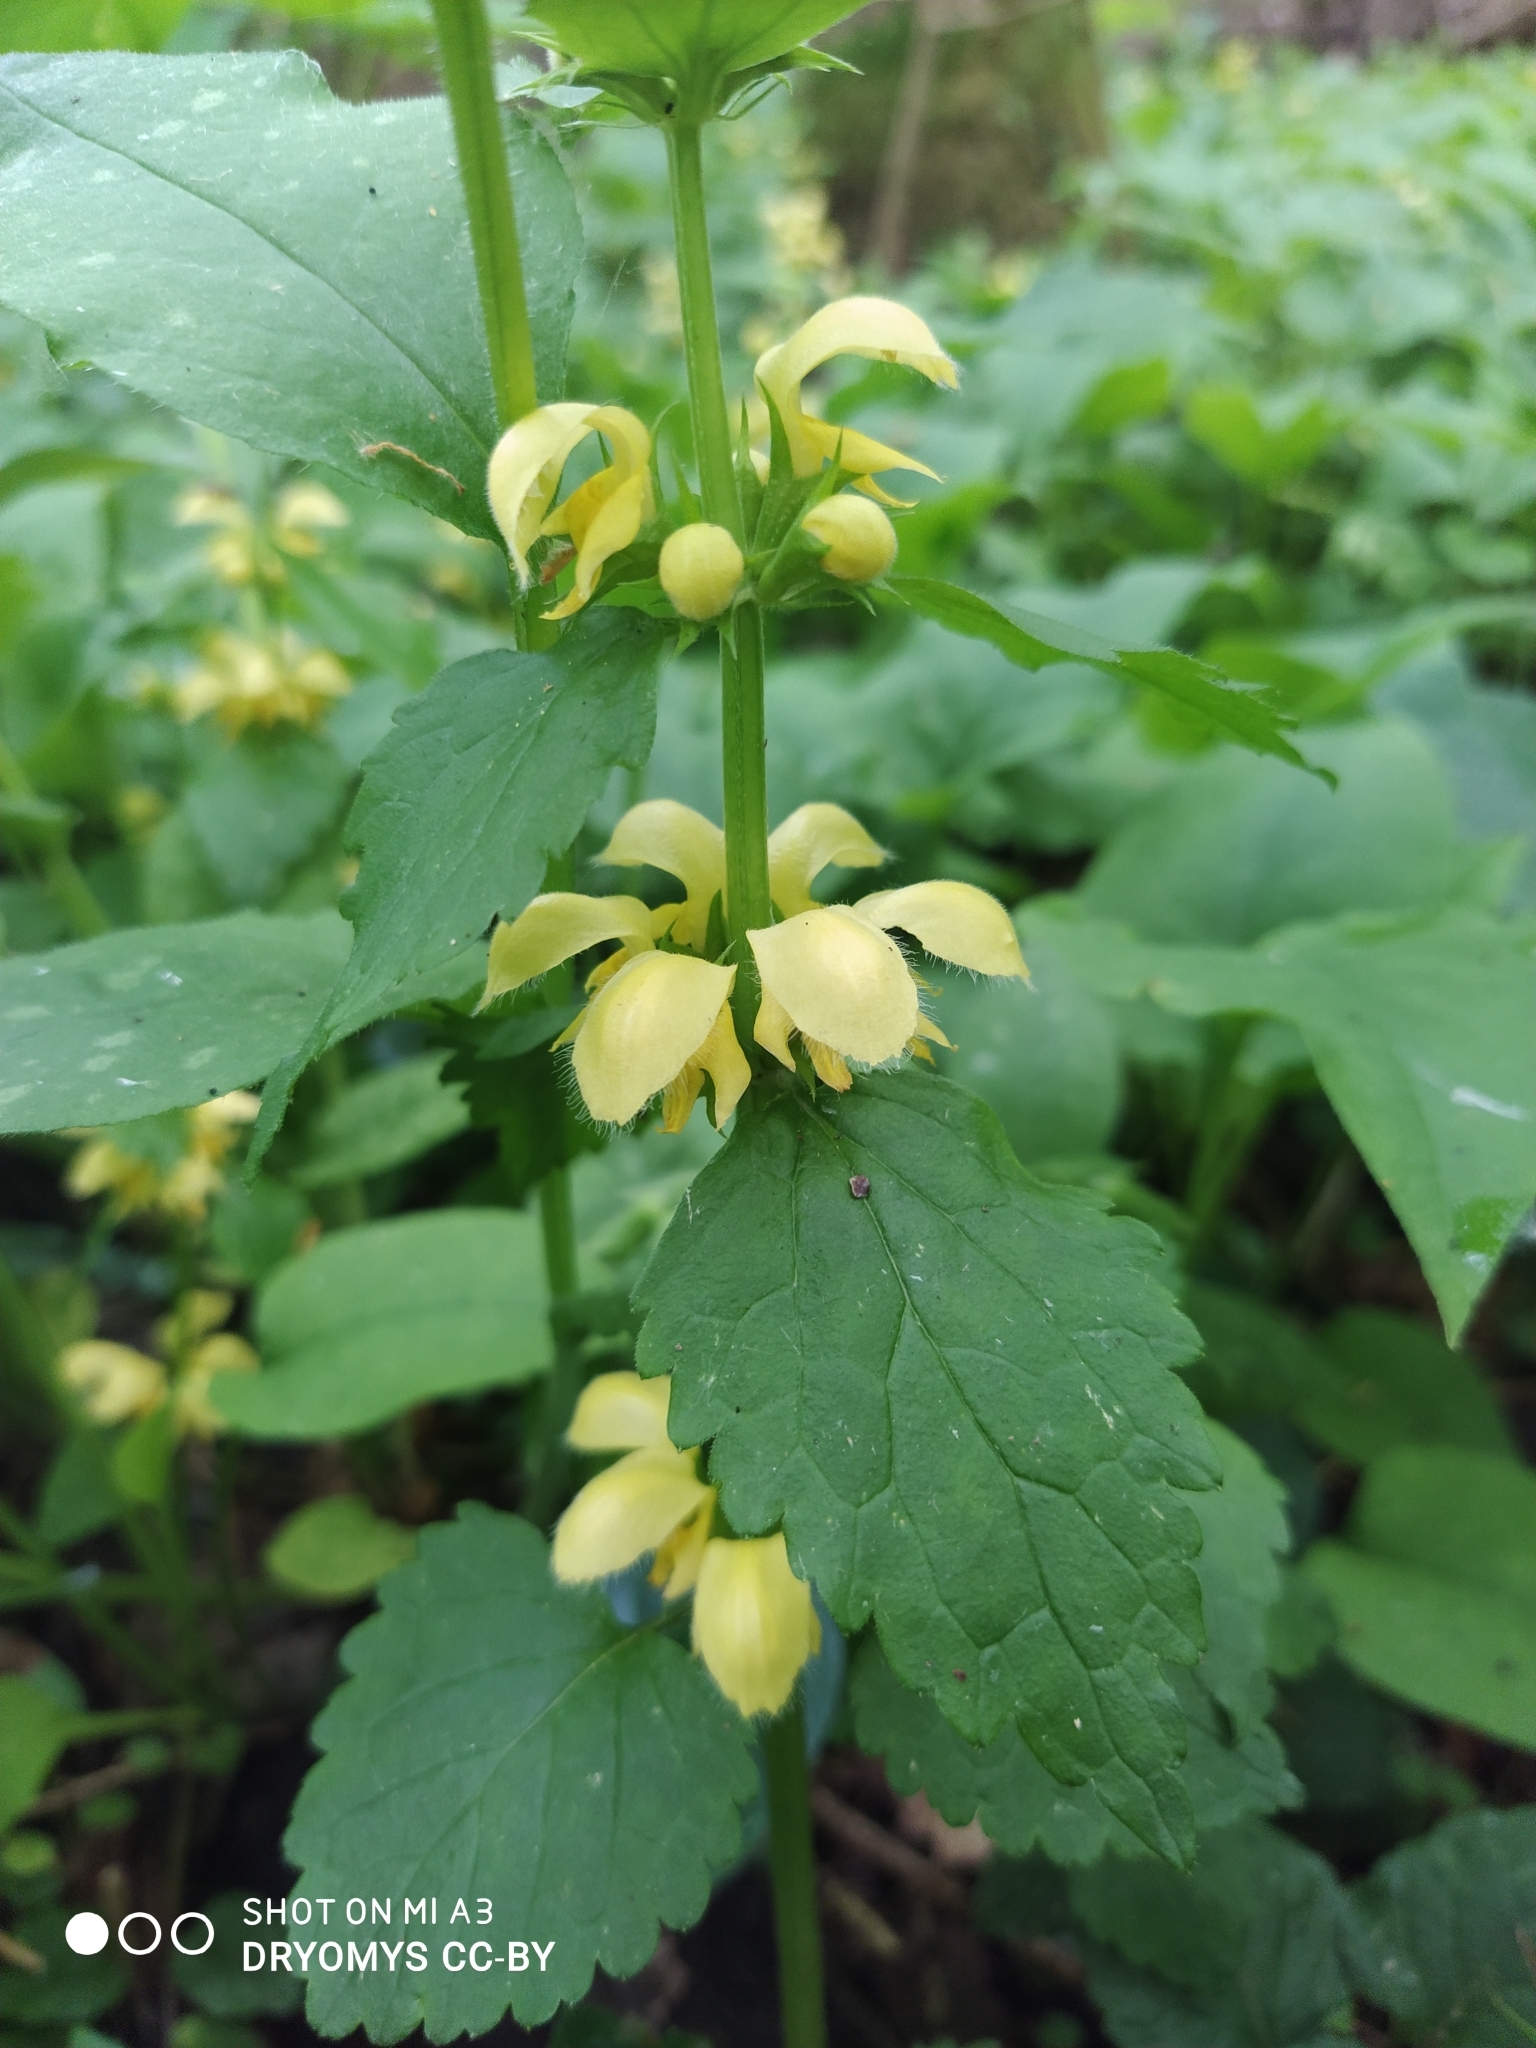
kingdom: Plantae
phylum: Tracheophyta
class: Magnoliopsida
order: Lamiales
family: Lamiaceae
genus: Lamium
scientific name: Lamium galeobdolon
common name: Yellow archangel
